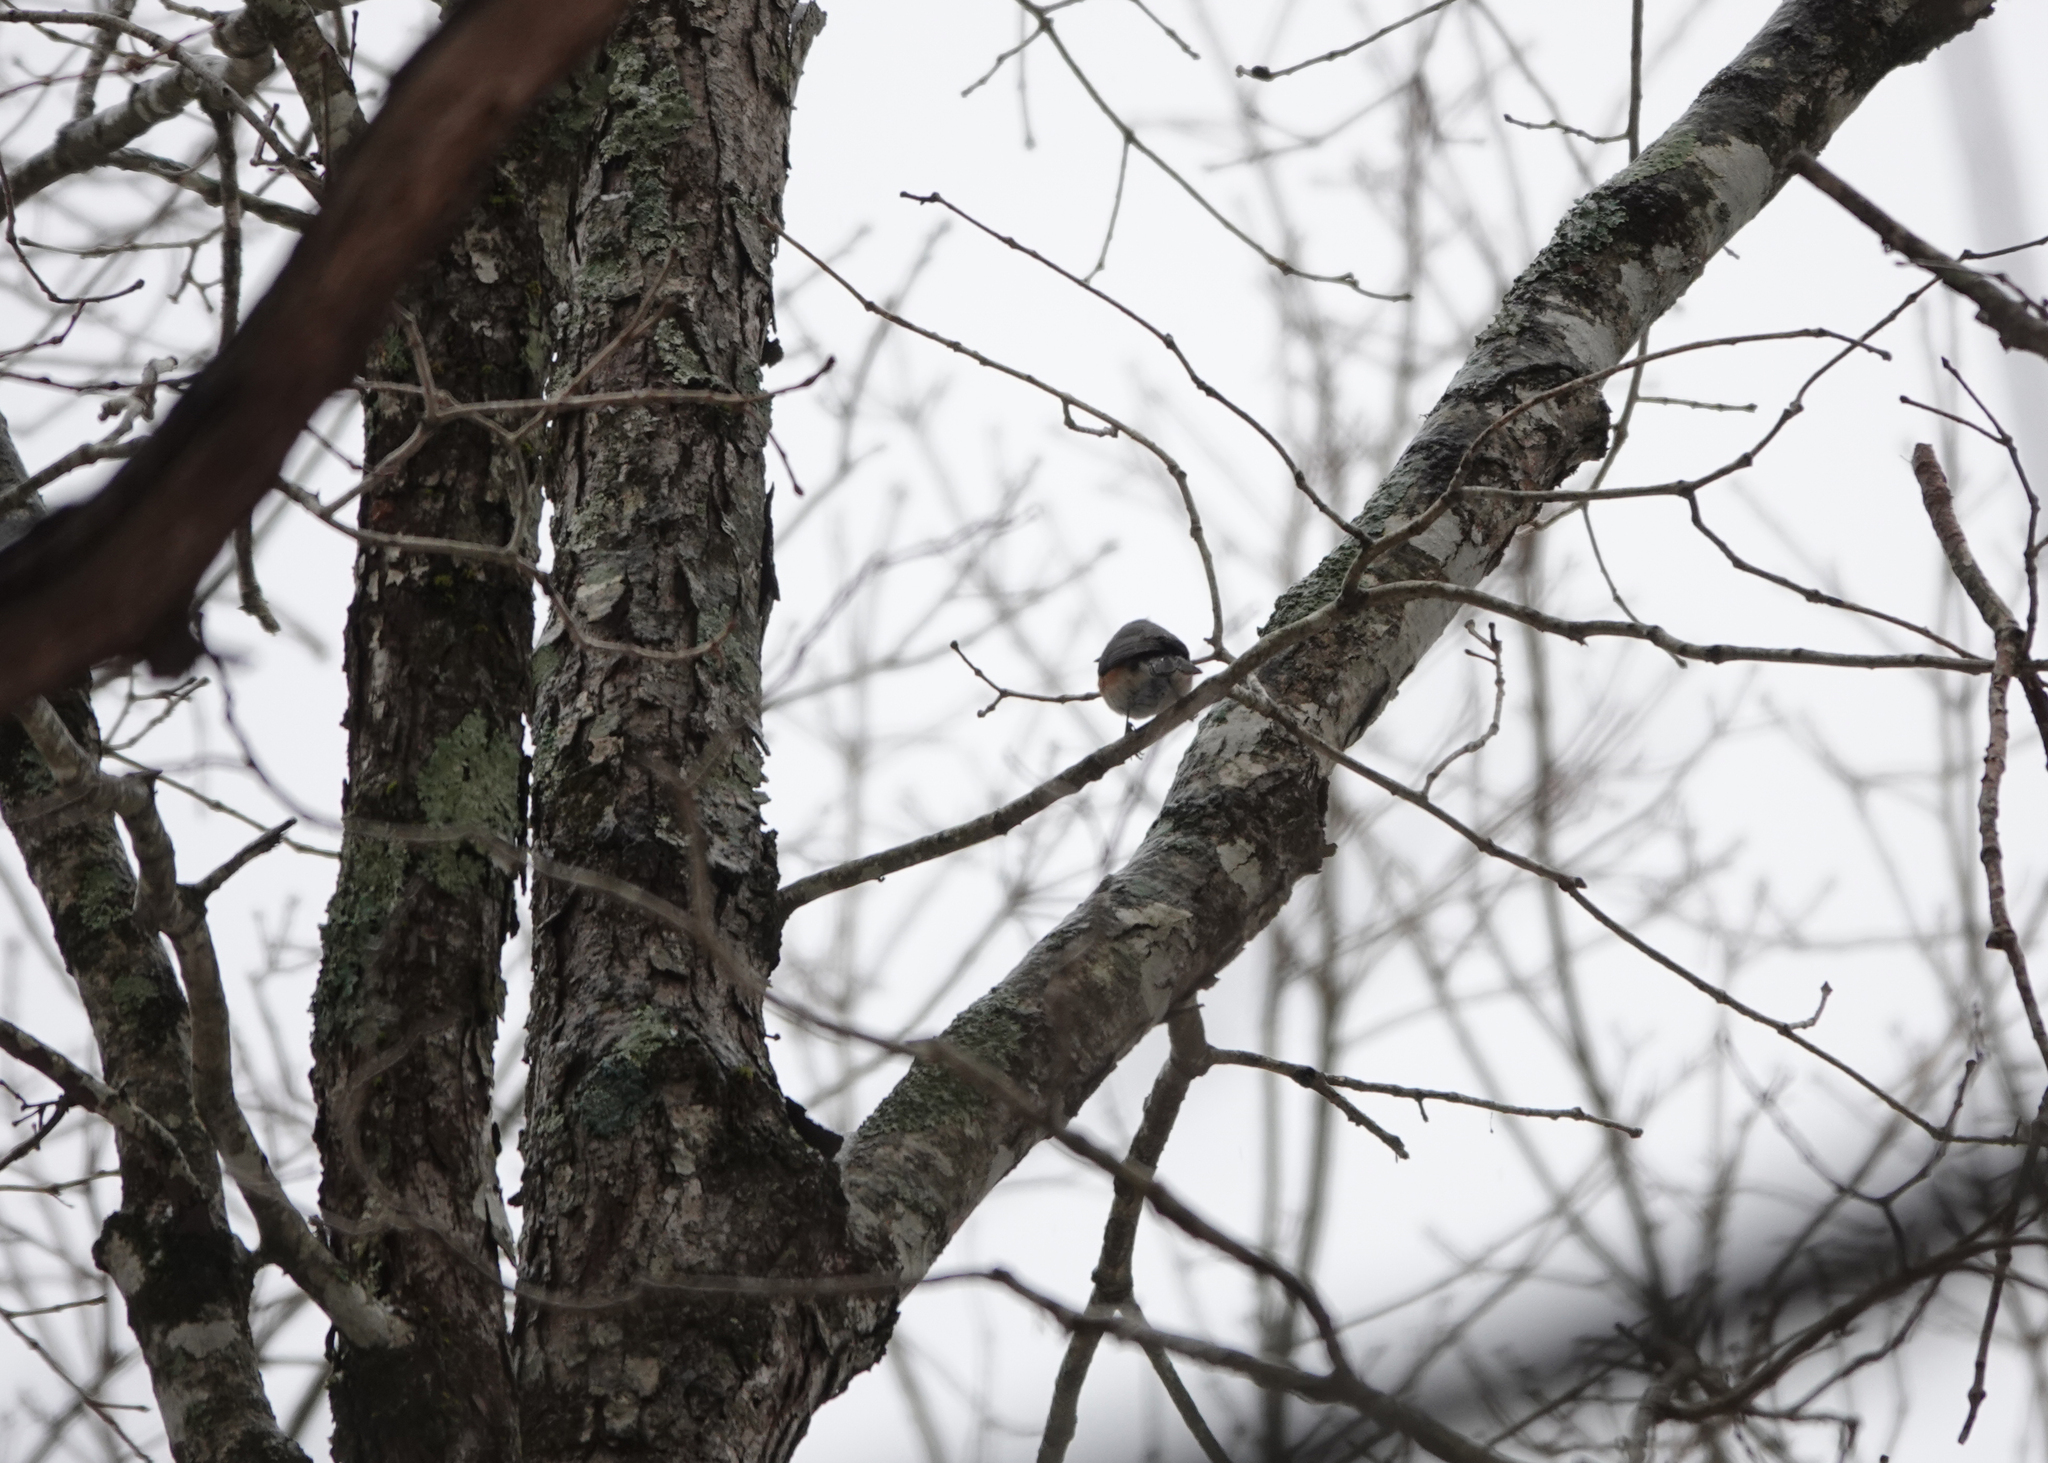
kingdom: Animalia
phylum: Chordata
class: Aves
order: Passeriformes
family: Paridae
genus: Baeolophus
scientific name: Baeolophus bicolor
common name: Tufted titmouse
